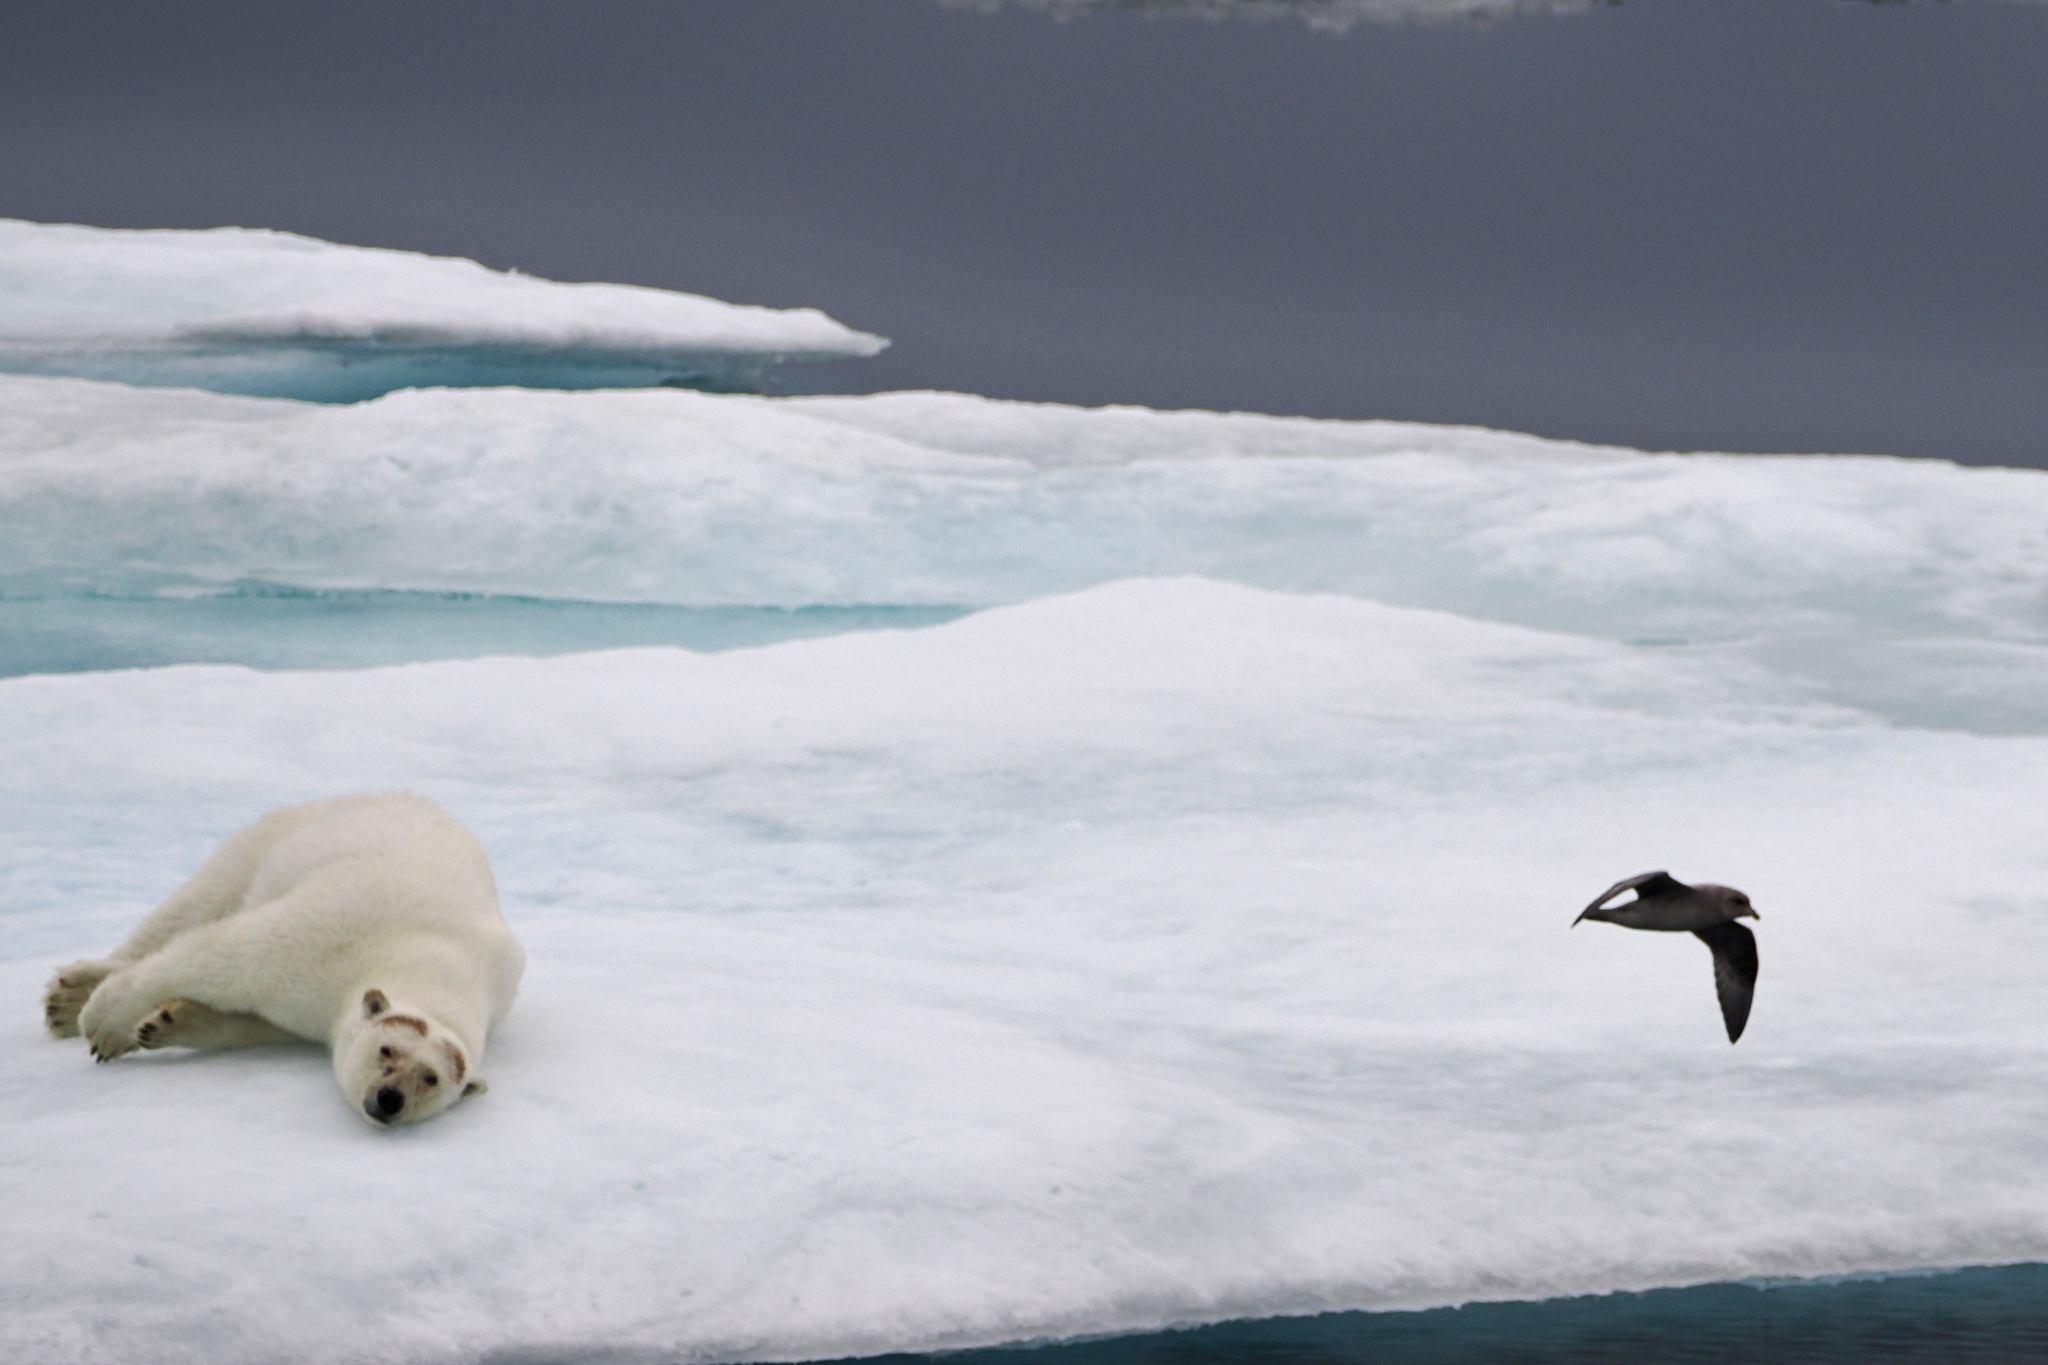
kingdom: Animalia
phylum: Chordata
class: Aves
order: Procellariiformes
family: Procellariidae
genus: Fulmarus
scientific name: Fulmarus glacialis
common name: Northern fulmar
